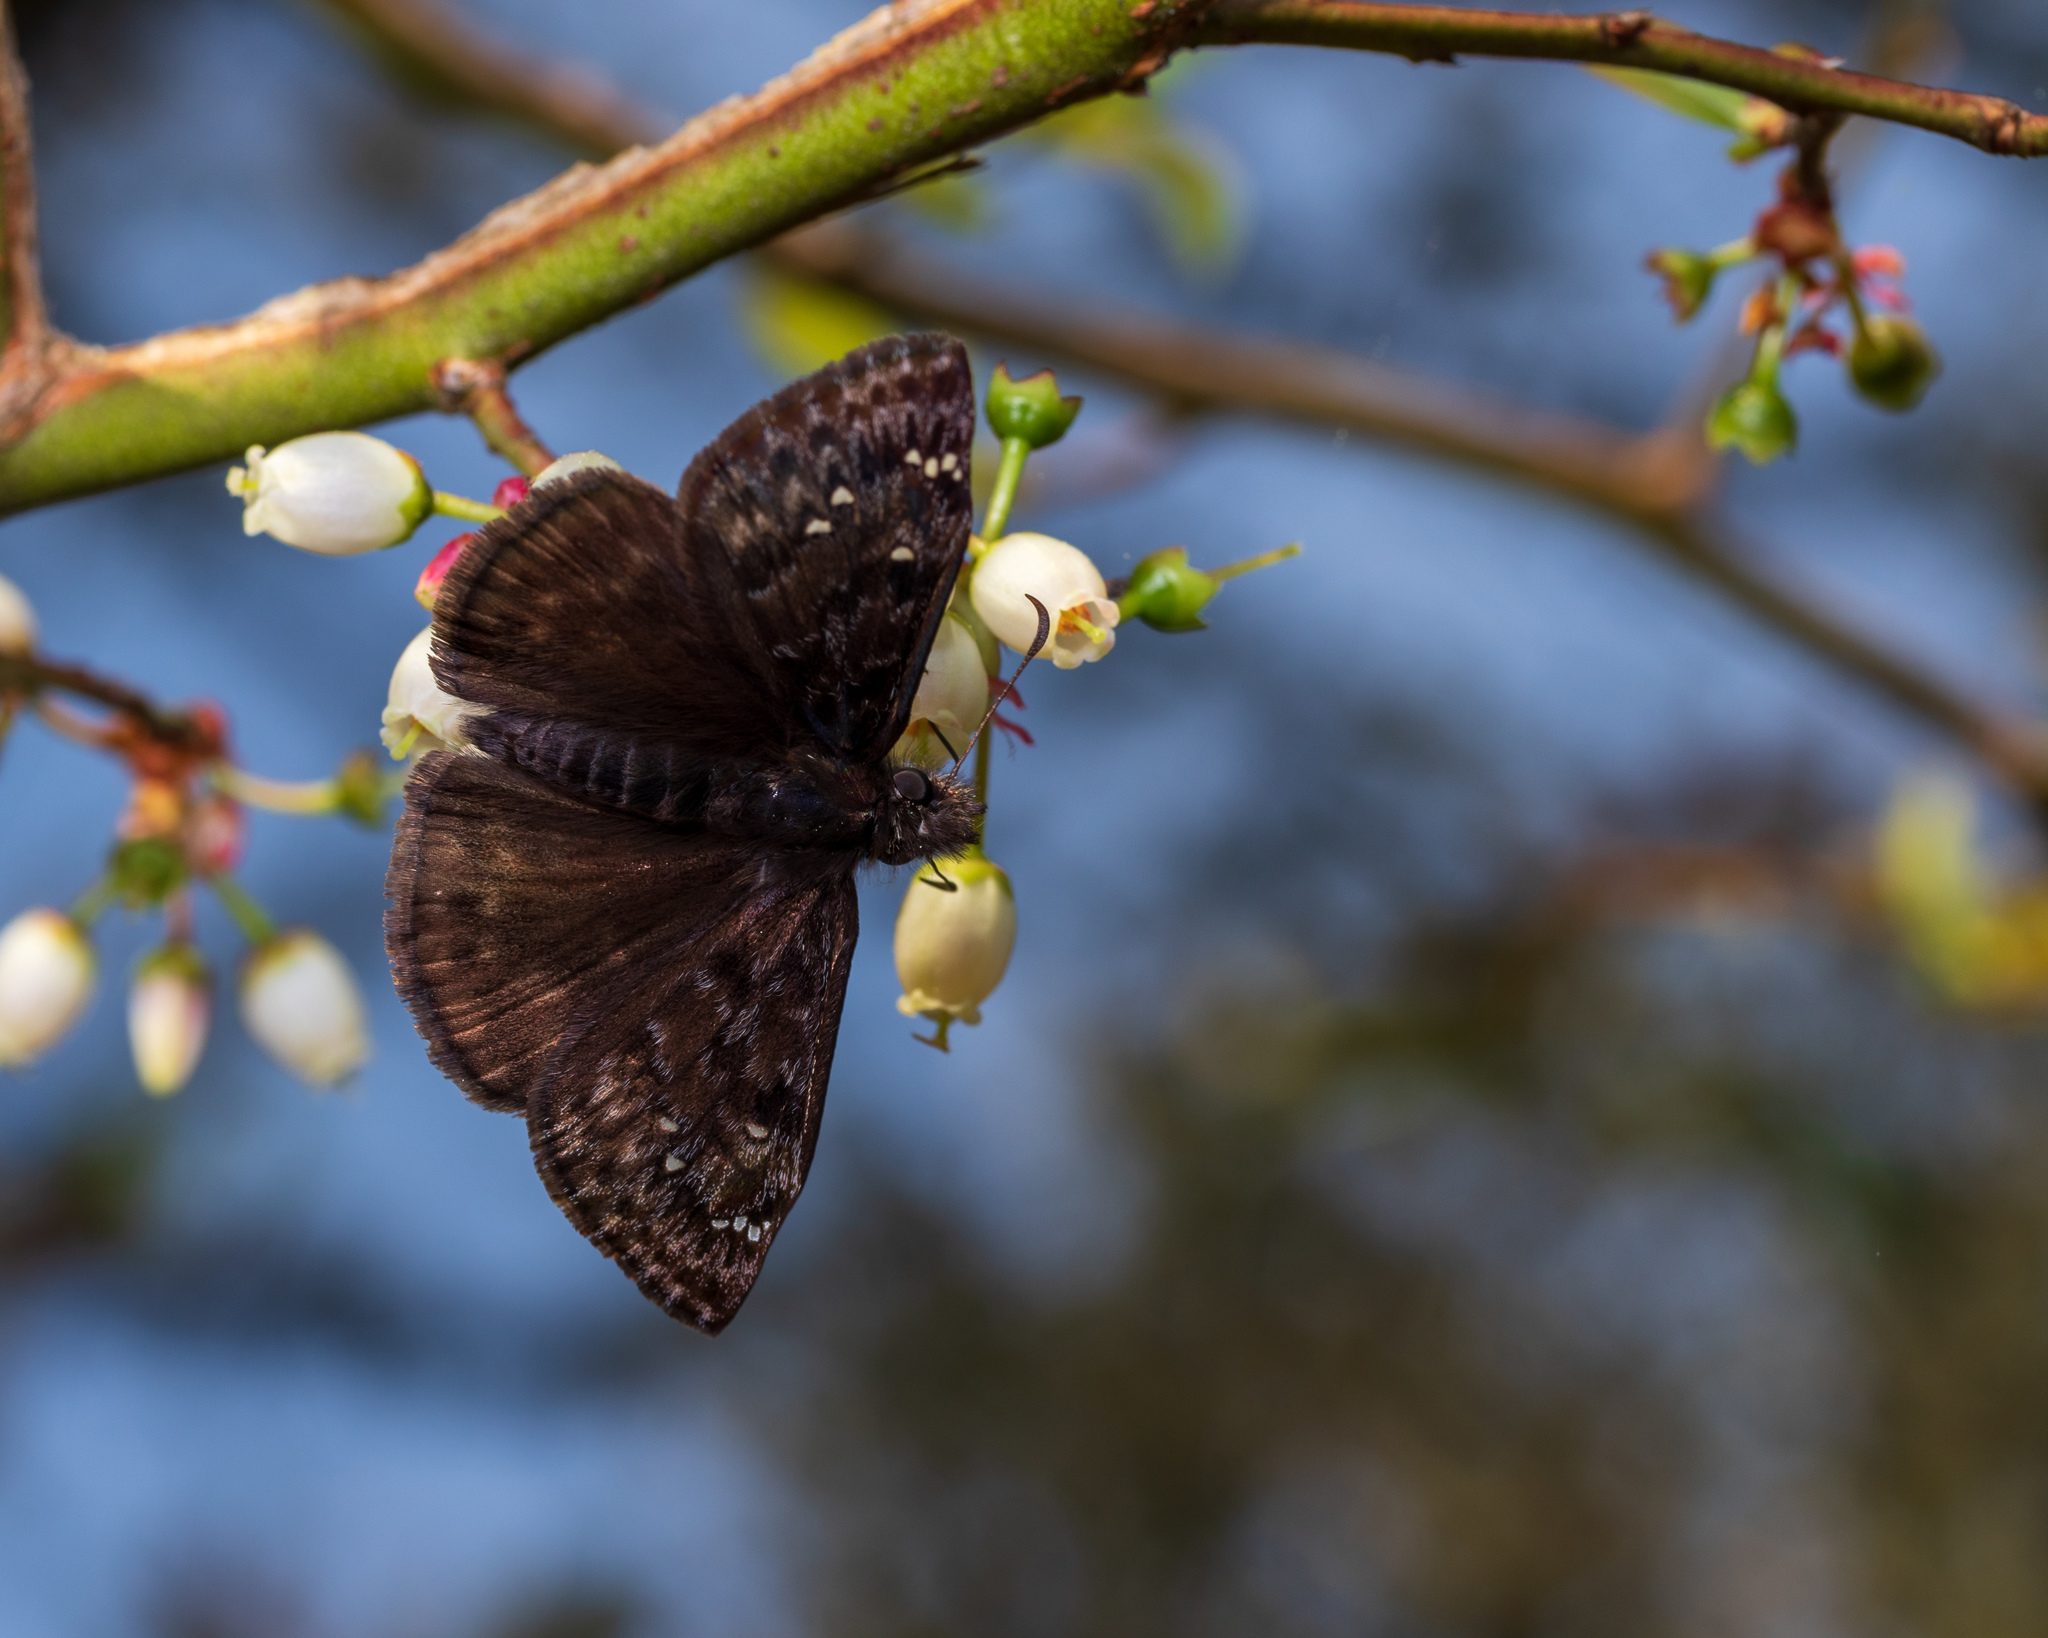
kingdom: Animalia
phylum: Arthropoda
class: Insecta
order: Lepidoptera
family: Hesperiidae
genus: Erynnis
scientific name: Erynnis juvenalis
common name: Juvenal's duskywing
